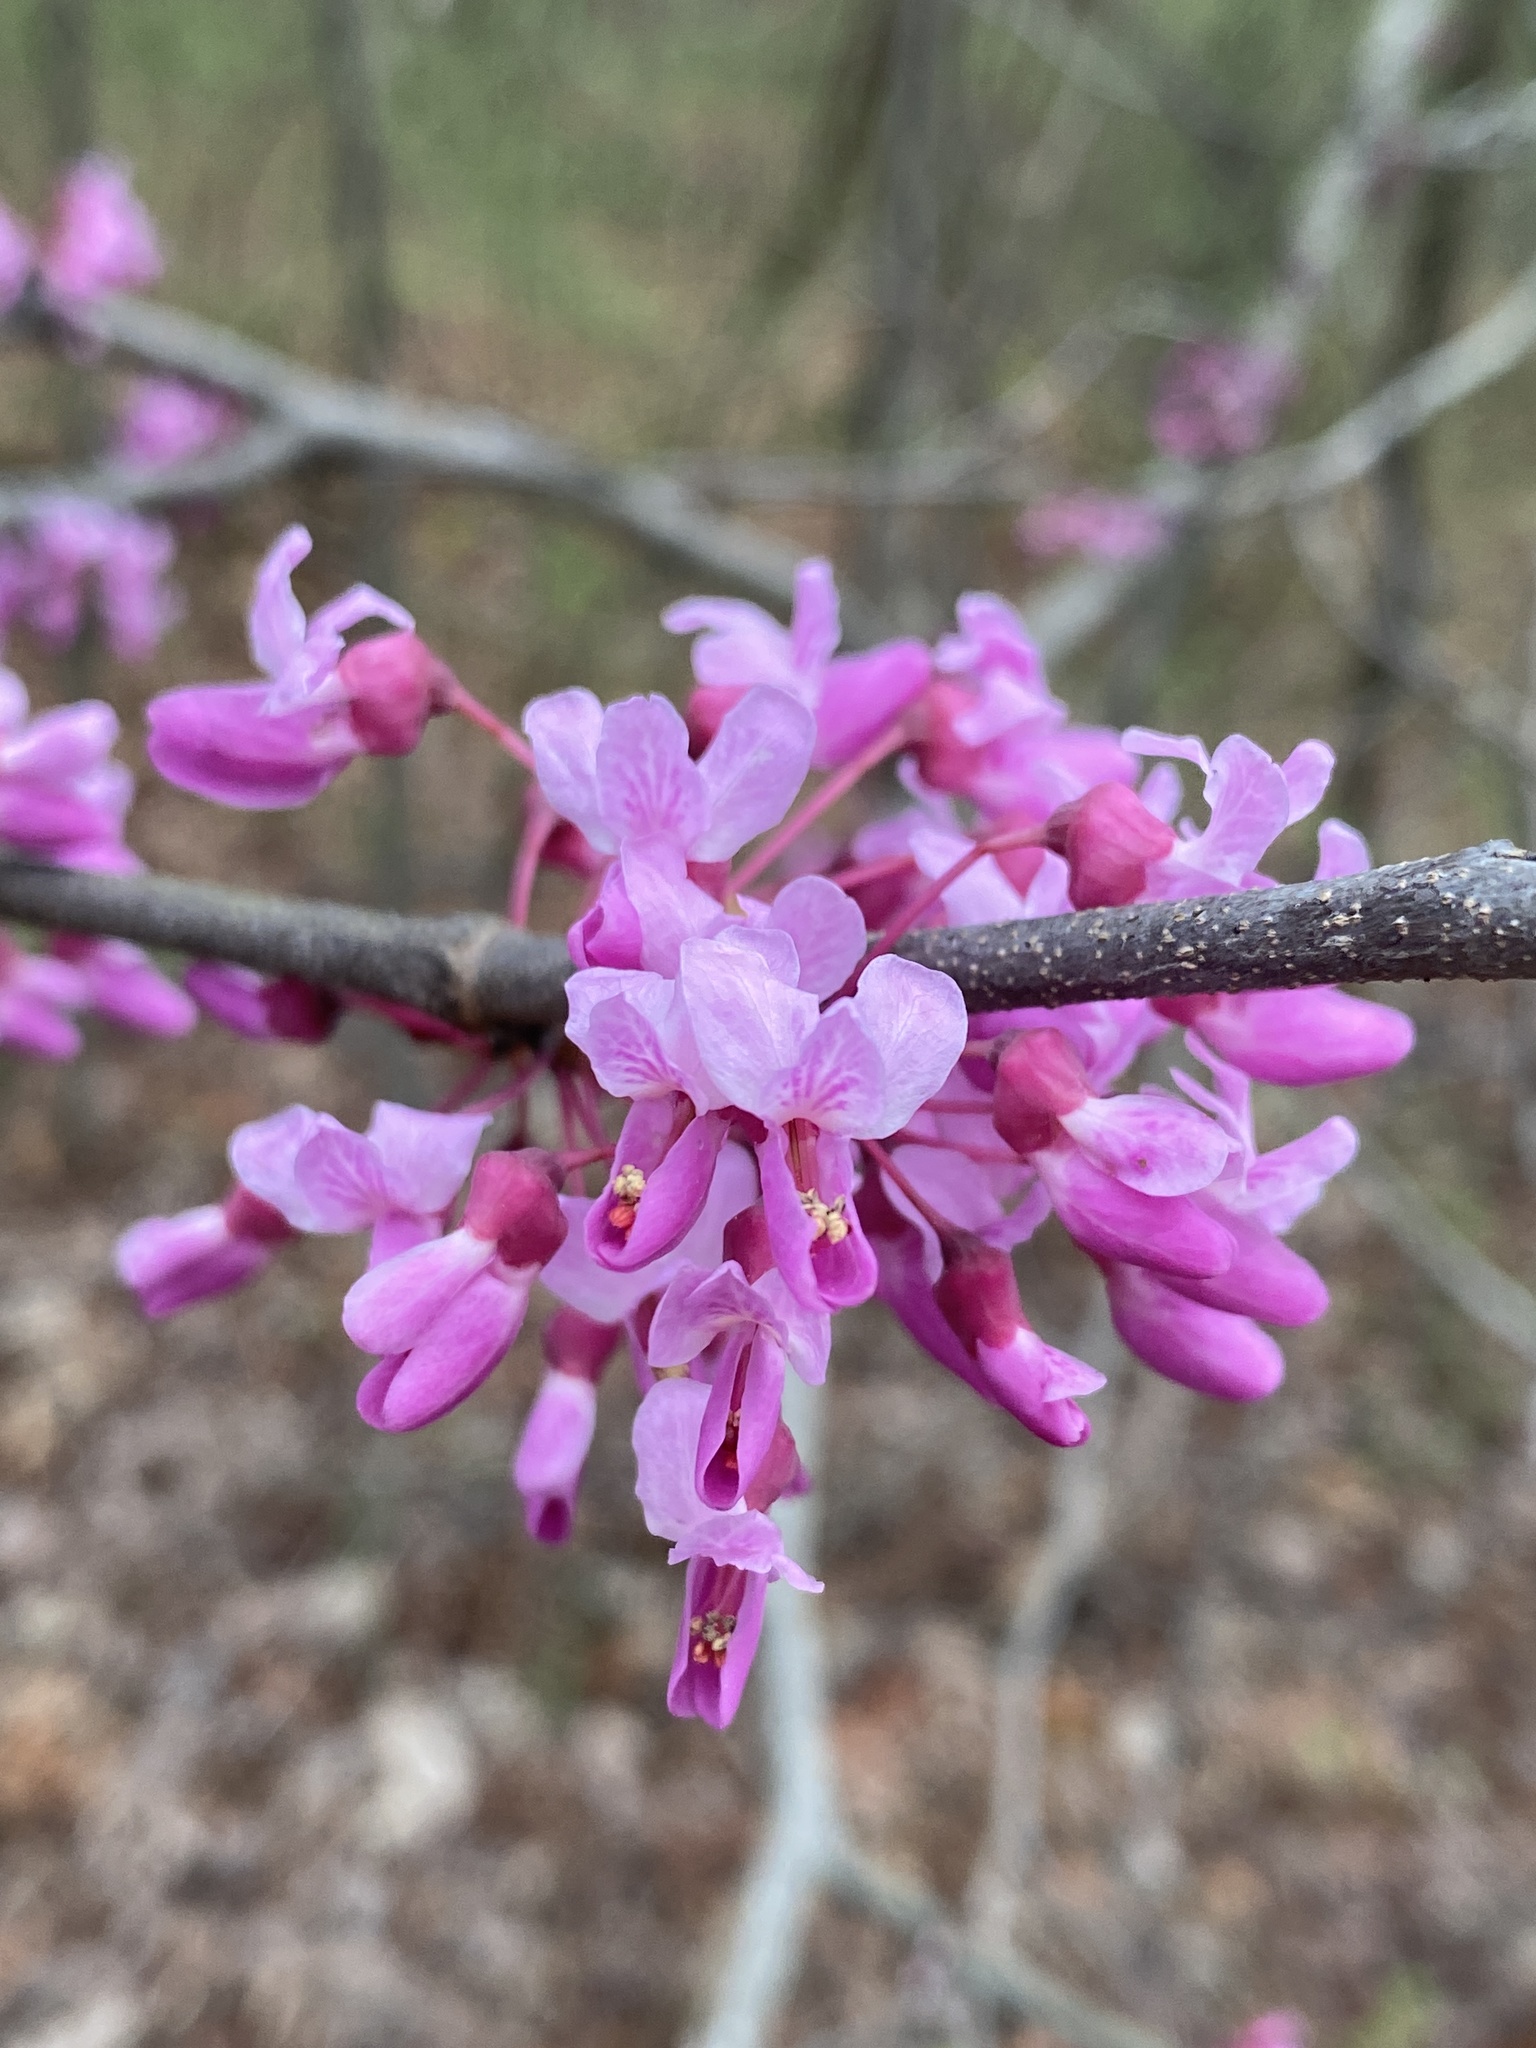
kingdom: Plantae
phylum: Tracheophyta
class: Magnoliopsida
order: Fabales
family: Fabaceae
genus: Cercis
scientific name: Cercis canadensis
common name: Eastern redbud
